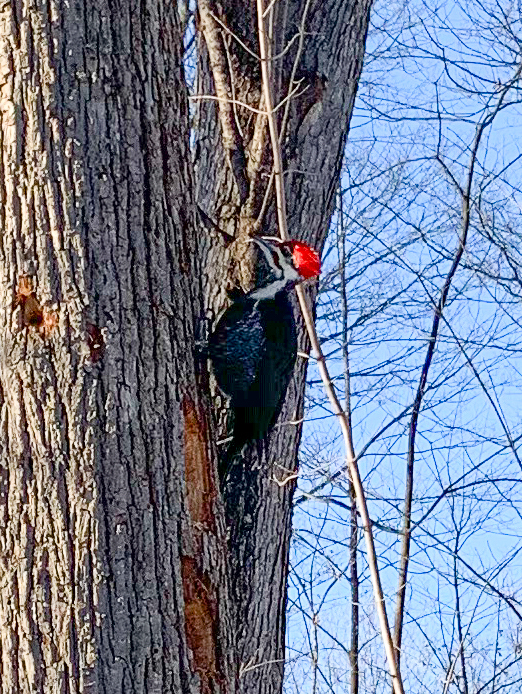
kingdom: Animalia
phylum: Chordata
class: Aves
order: Piciformes
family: Picidae
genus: Dryocopus
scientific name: Dryocopus pileatus
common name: Pileated woodpecker
